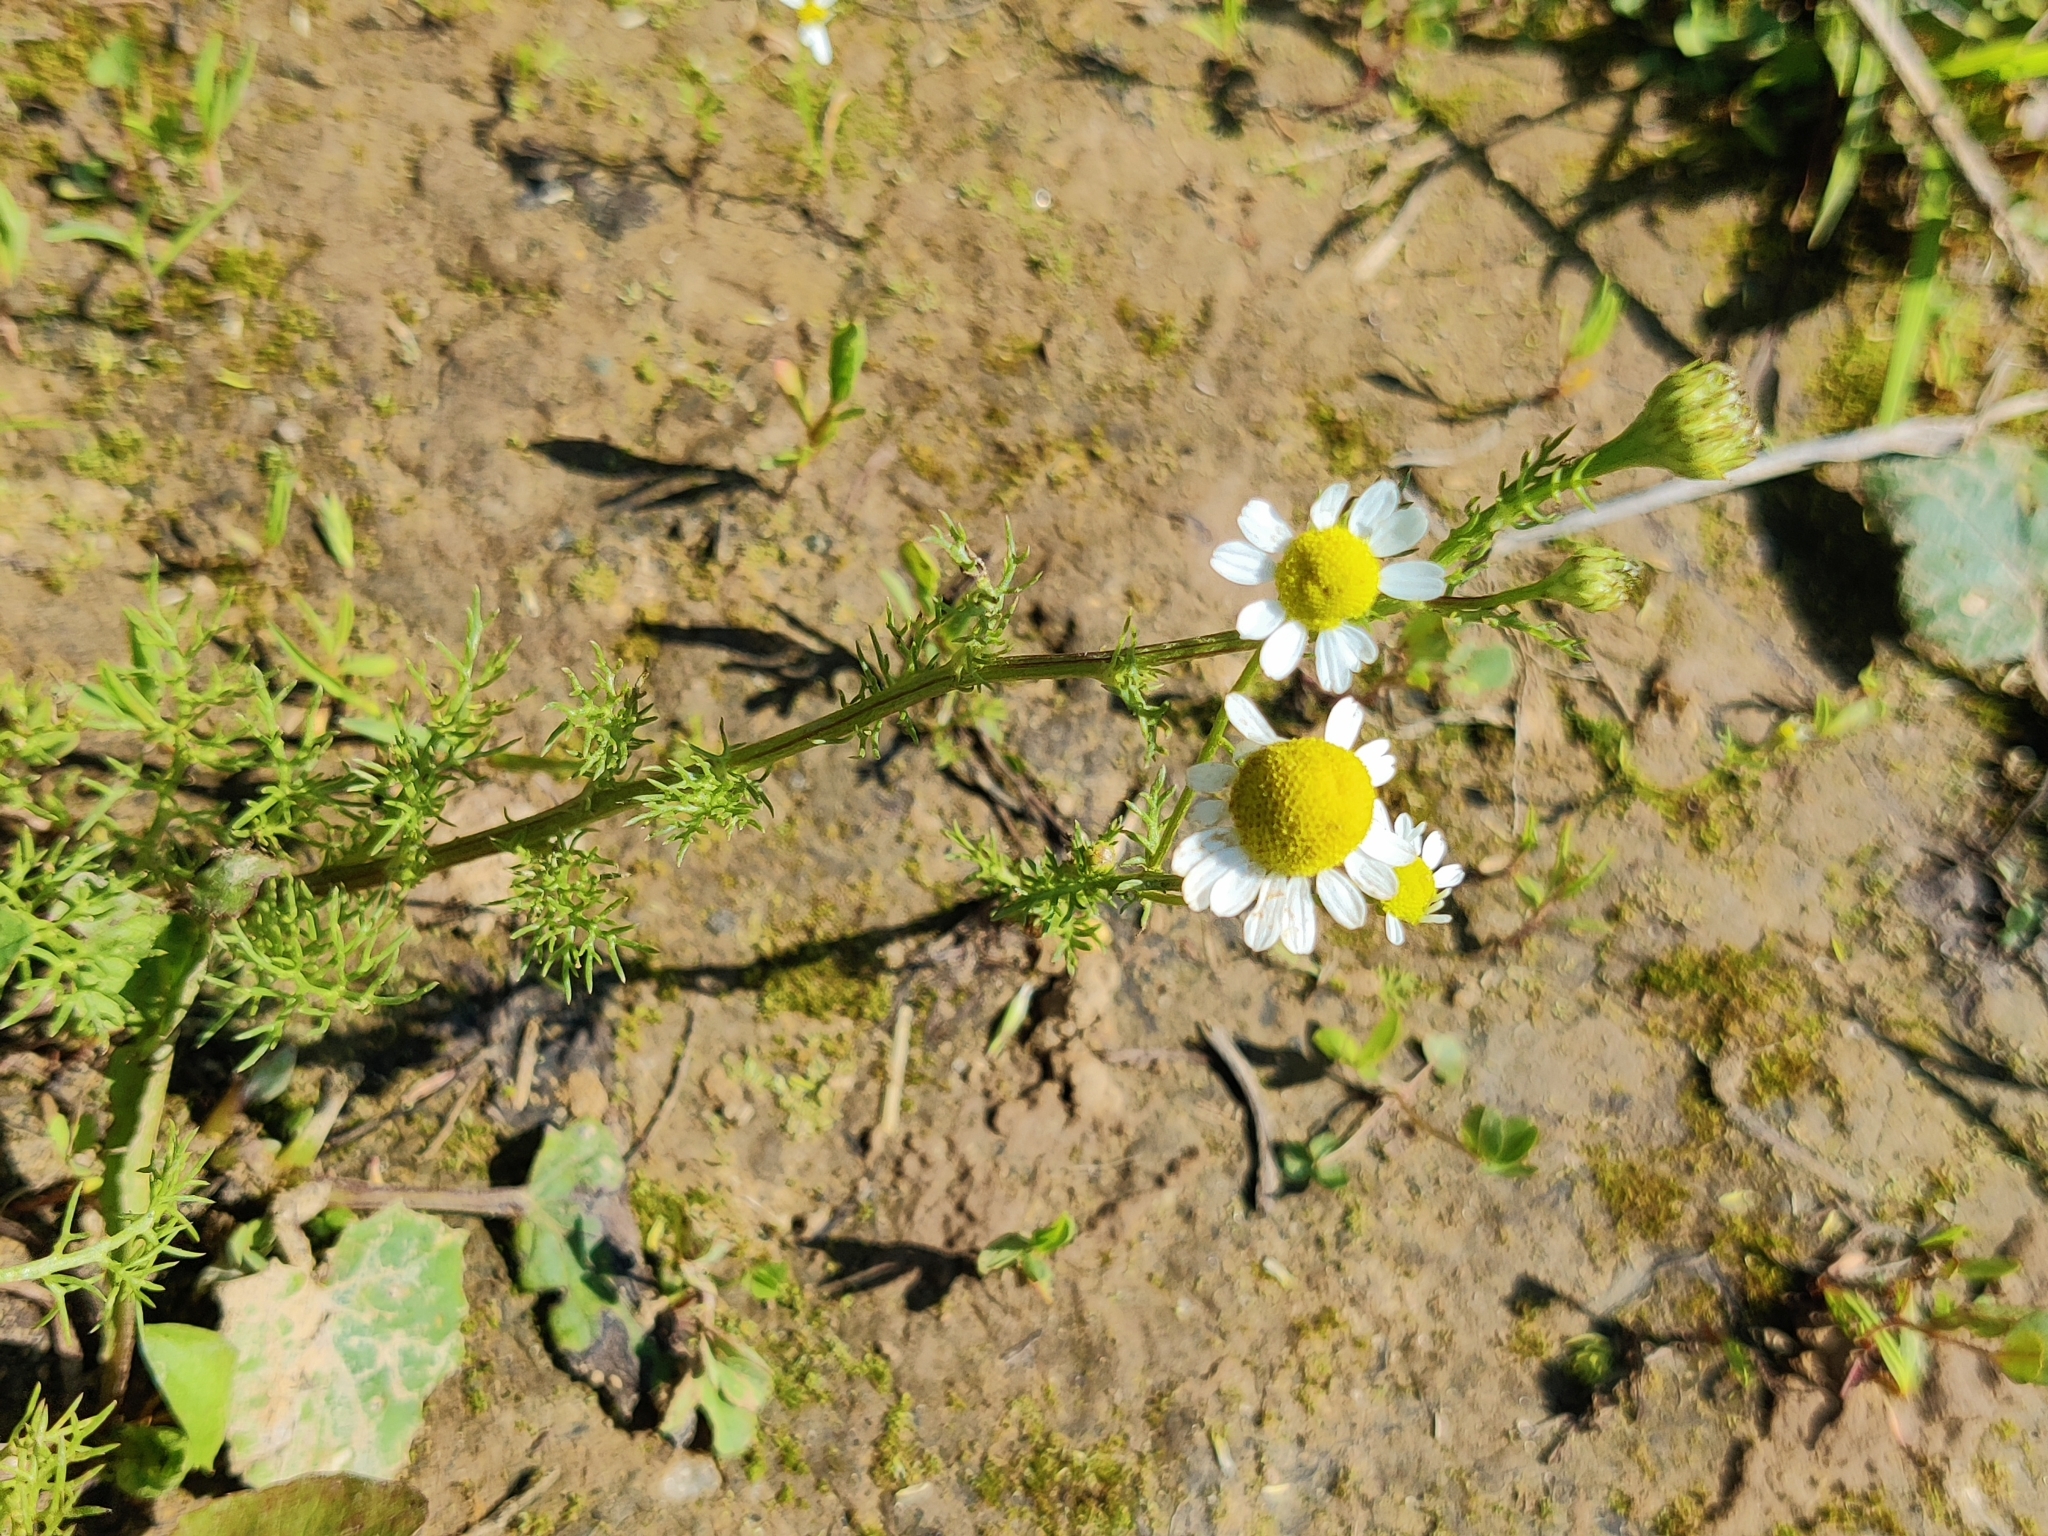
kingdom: Plantae
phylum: Tracheophyta
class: Magnoliopsida
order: Asterales
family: Asteraceae
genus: Matricaria
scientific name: Matricaria chamomilla
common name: Scented mayweed
